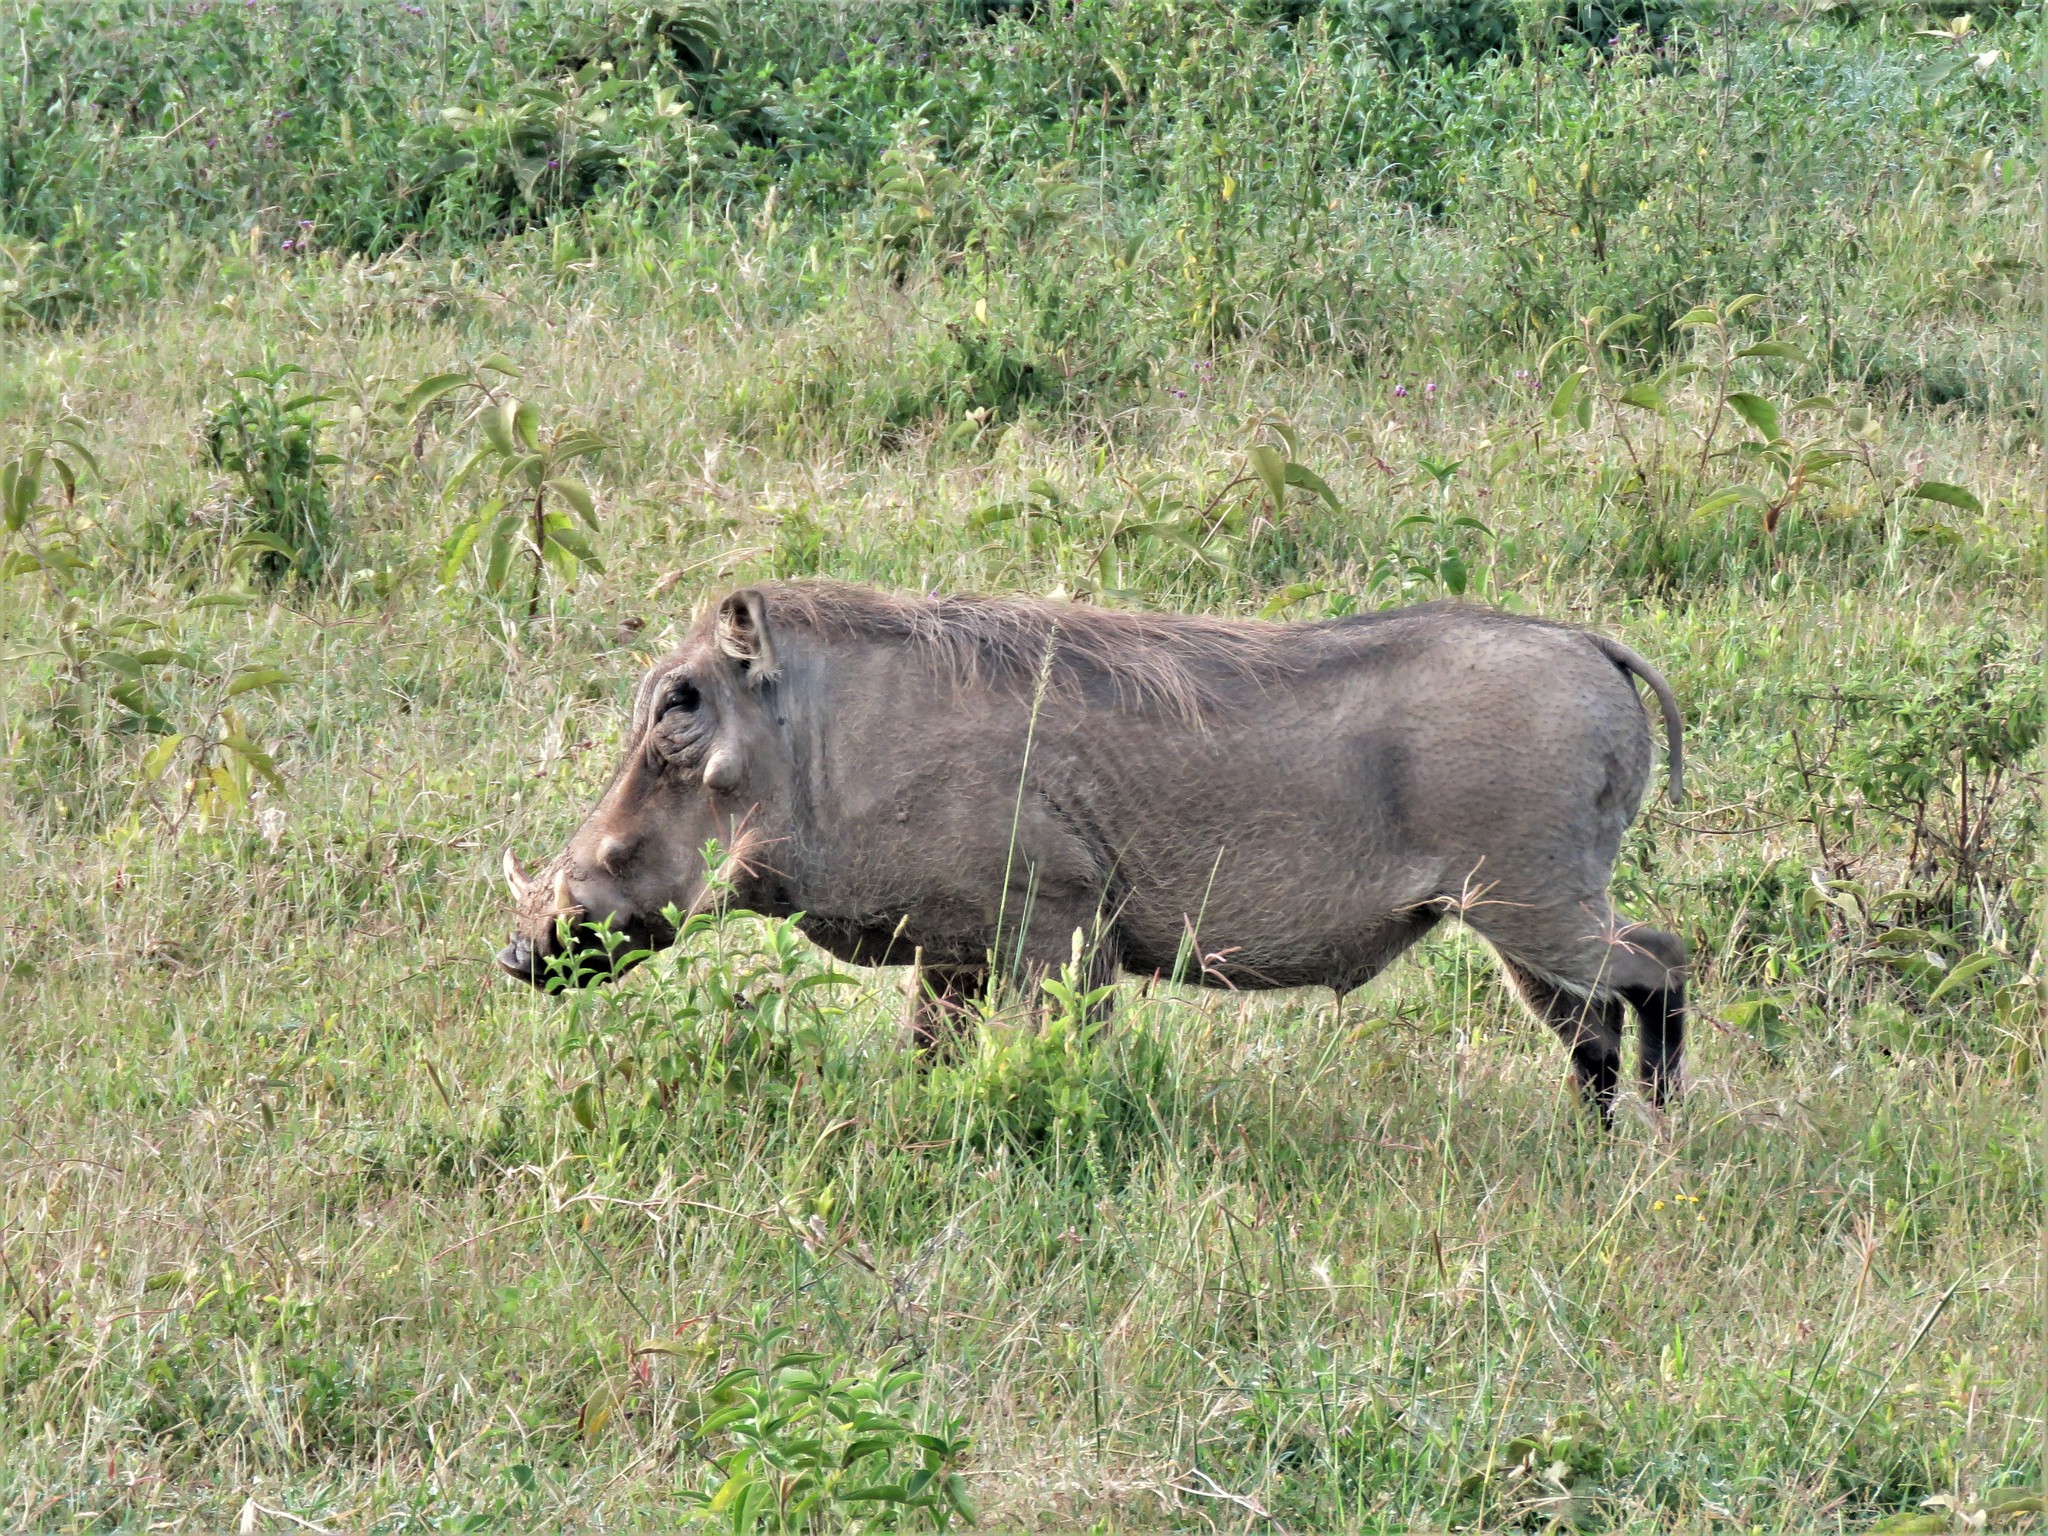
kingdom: Animalia
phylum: Chordata
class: Mammalia
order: Artiodactyla
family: Suidae
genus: Phacochoerus
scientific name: Phacochoerus africanus
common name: Common warthog
